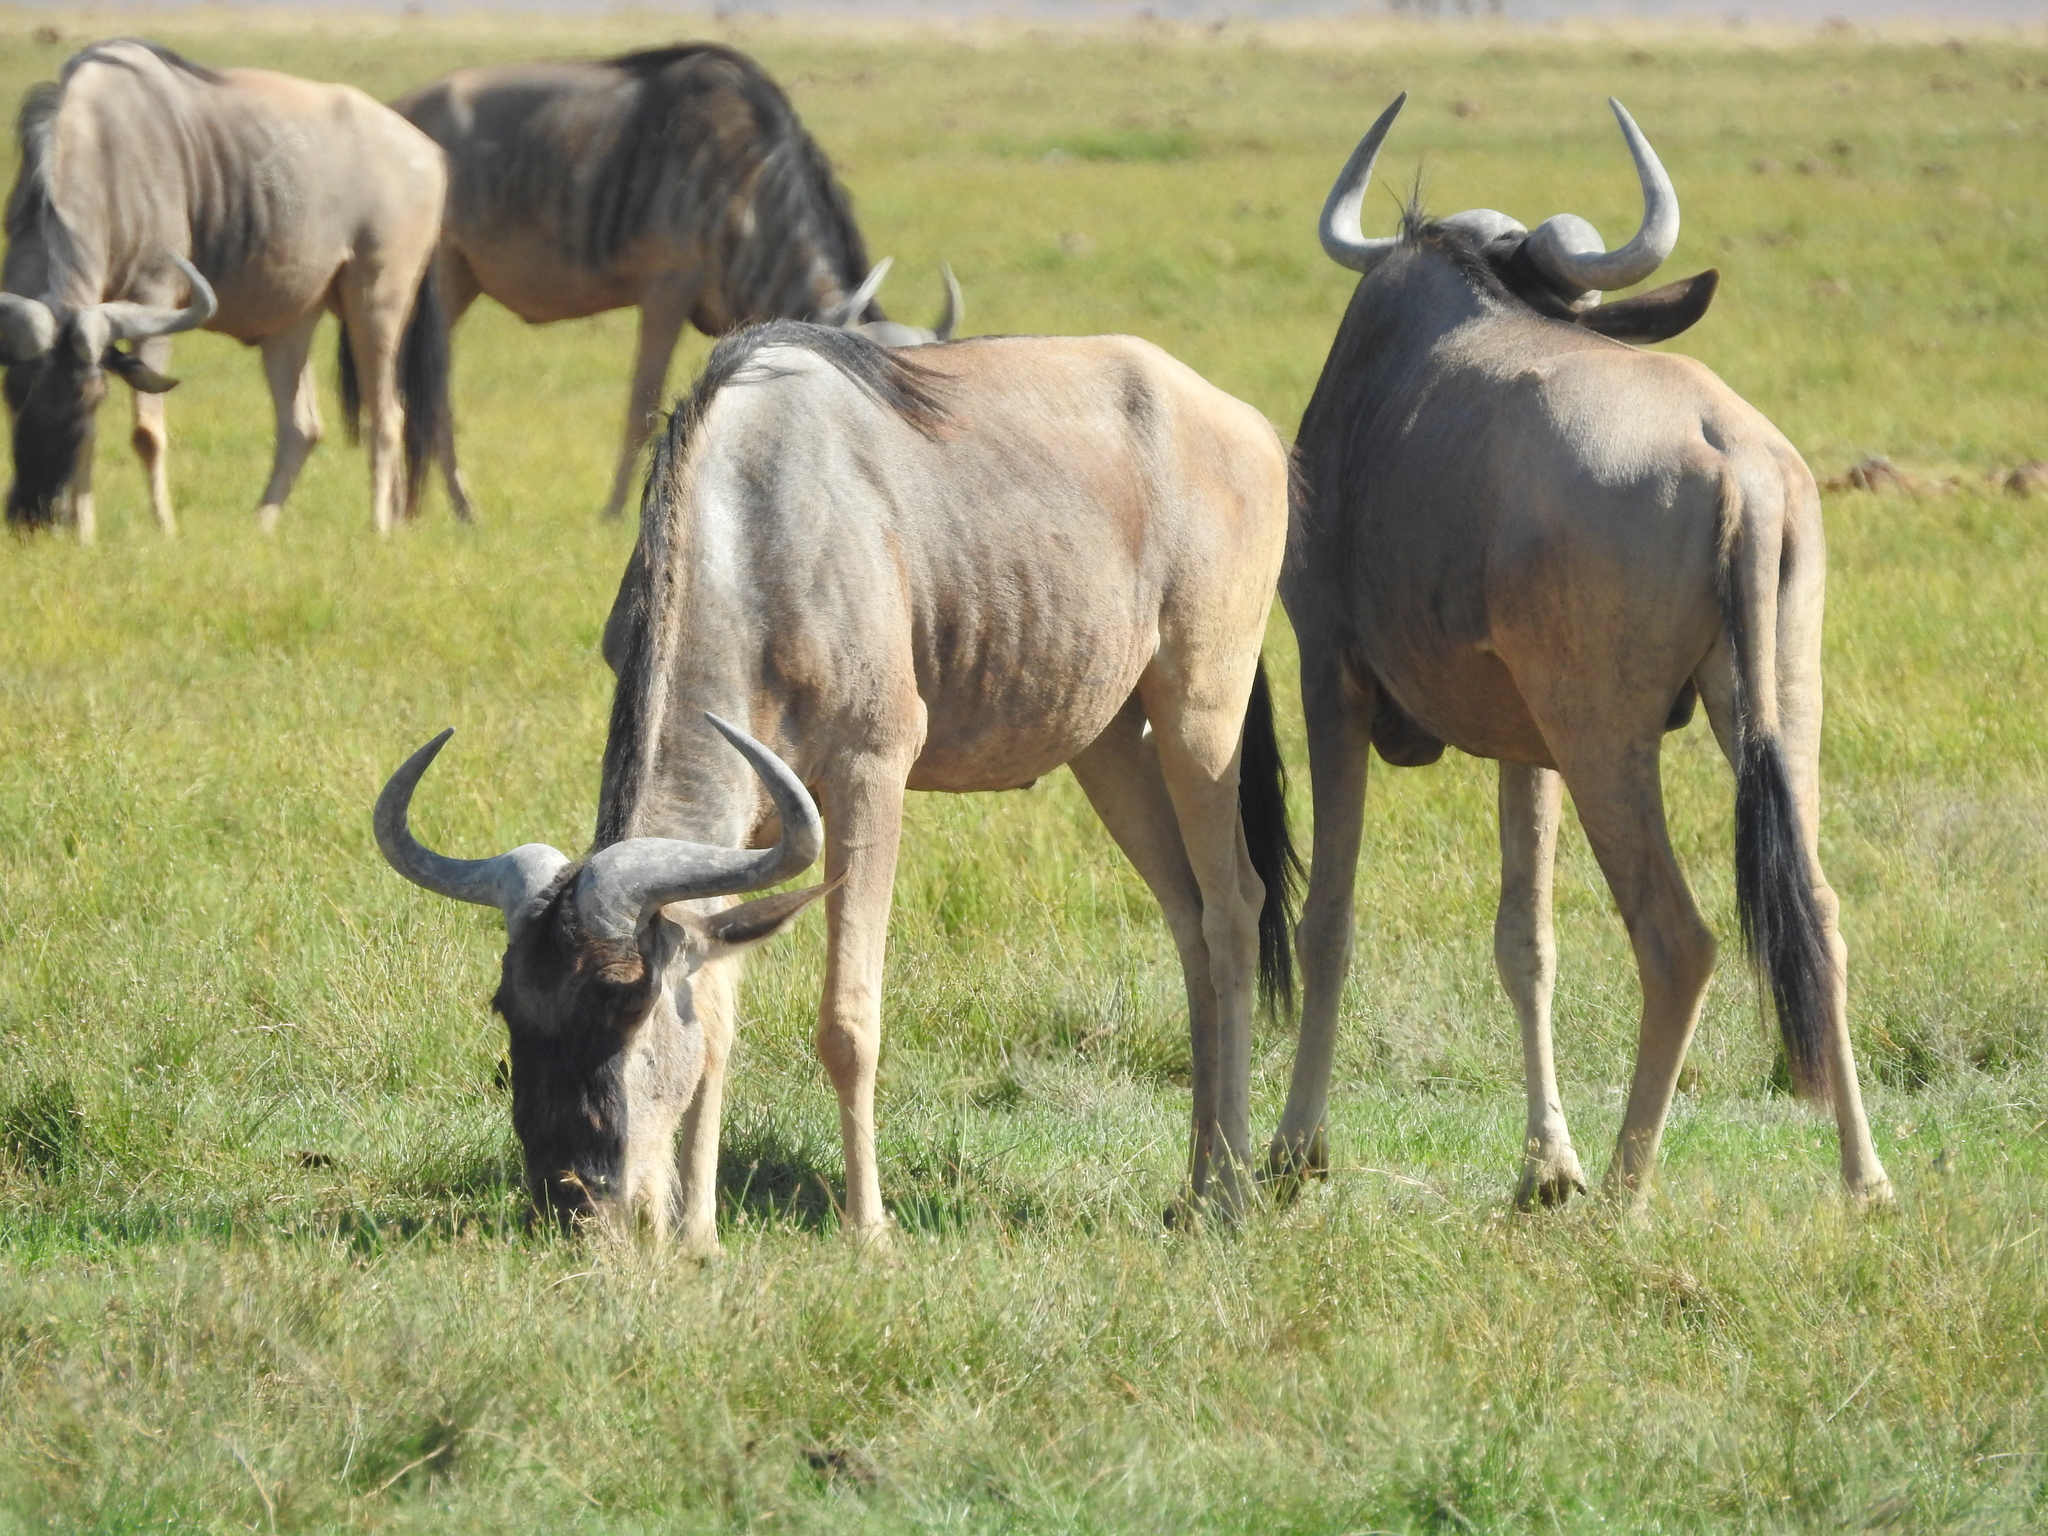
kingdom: Animalia
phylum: Chordata
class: Mammalia
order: Artiodactyla
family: Bovidae
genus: Connochaetes
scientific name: Connochaetes taurinus
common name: Blue wildebeest
